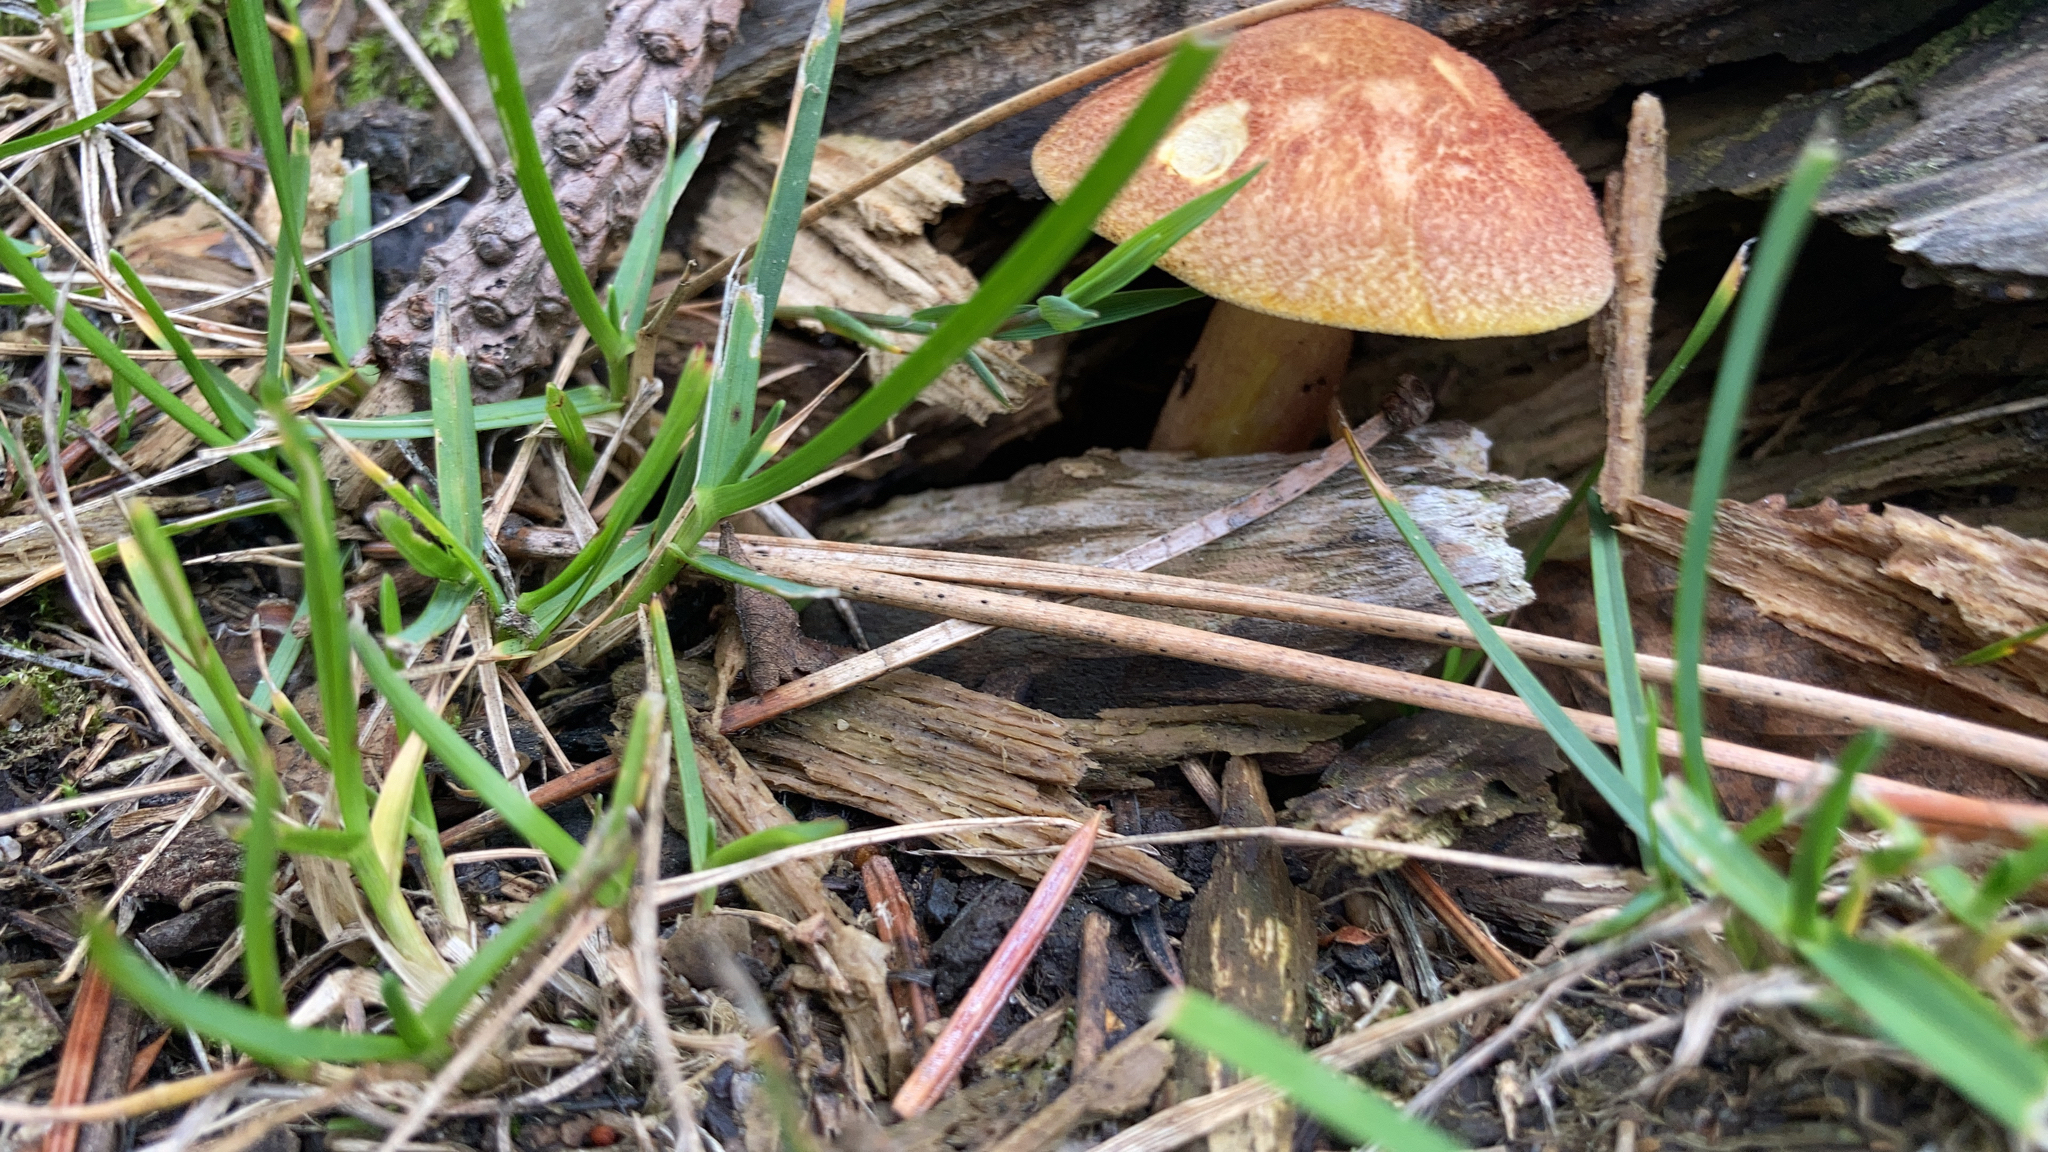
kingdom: Fungi
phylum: Basidiomycota
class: Agaricomycetes
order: Agaricales
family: Tricholomataceae
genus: Tricholomopsis
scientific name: Tricholomopsis rutilans
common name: Plums and custard
